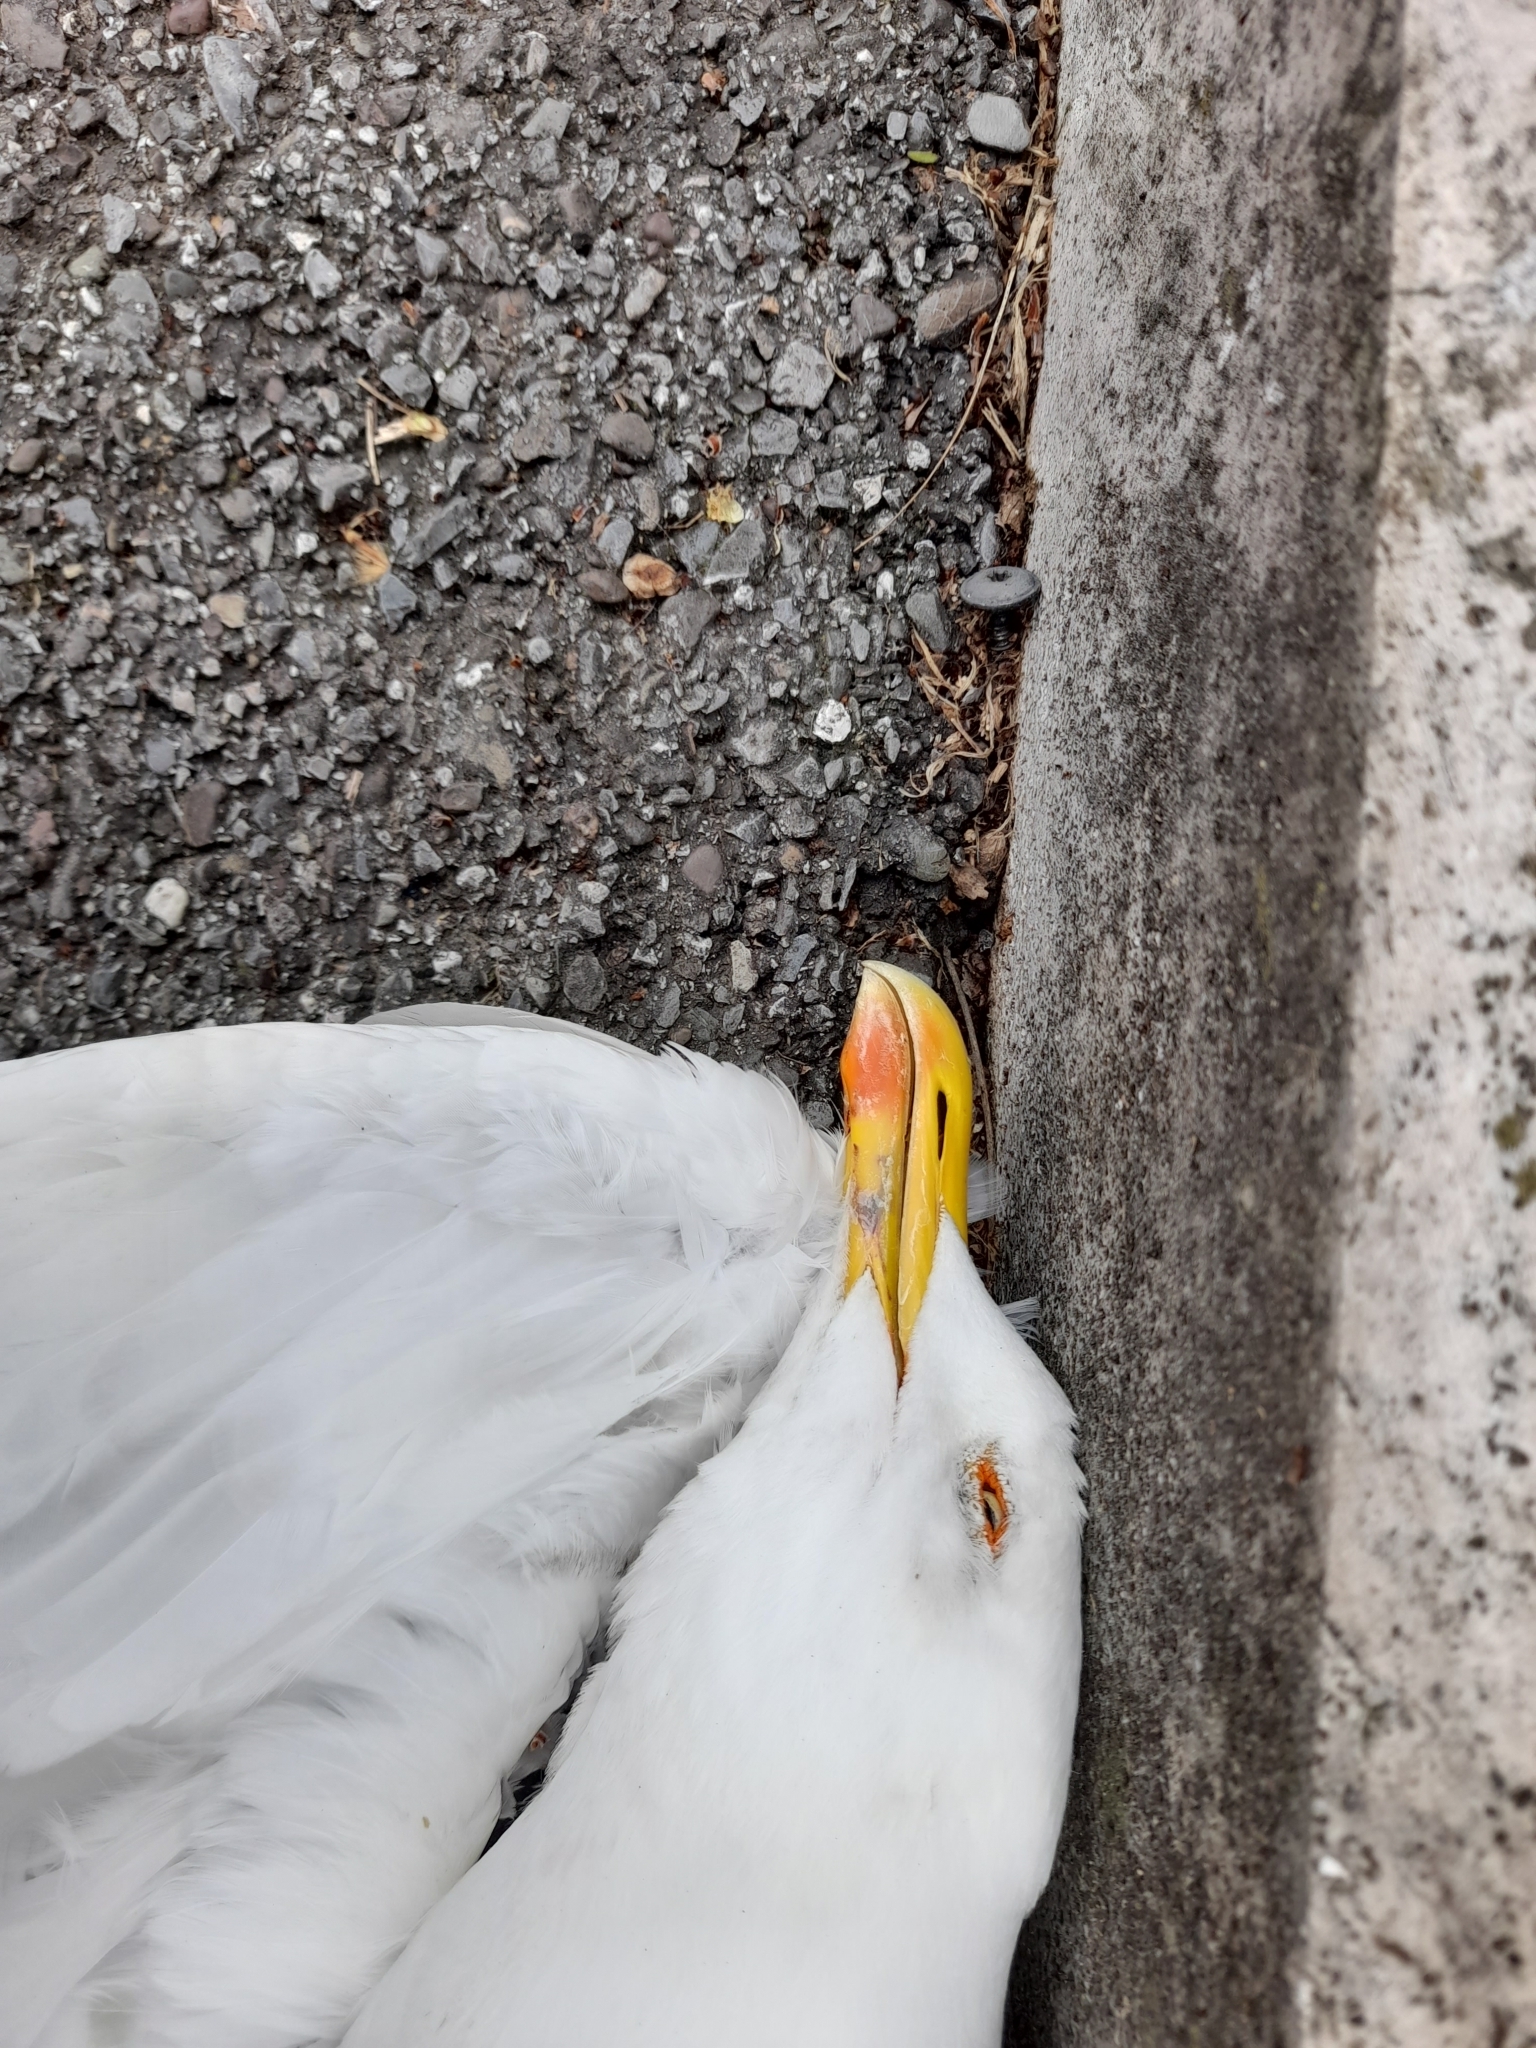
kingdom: Animalia
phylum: Chordata
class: Aves
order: Charadriiformes
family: Laridae
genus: Larus
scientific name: Larus michahellis
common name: Yellow-legged gull
